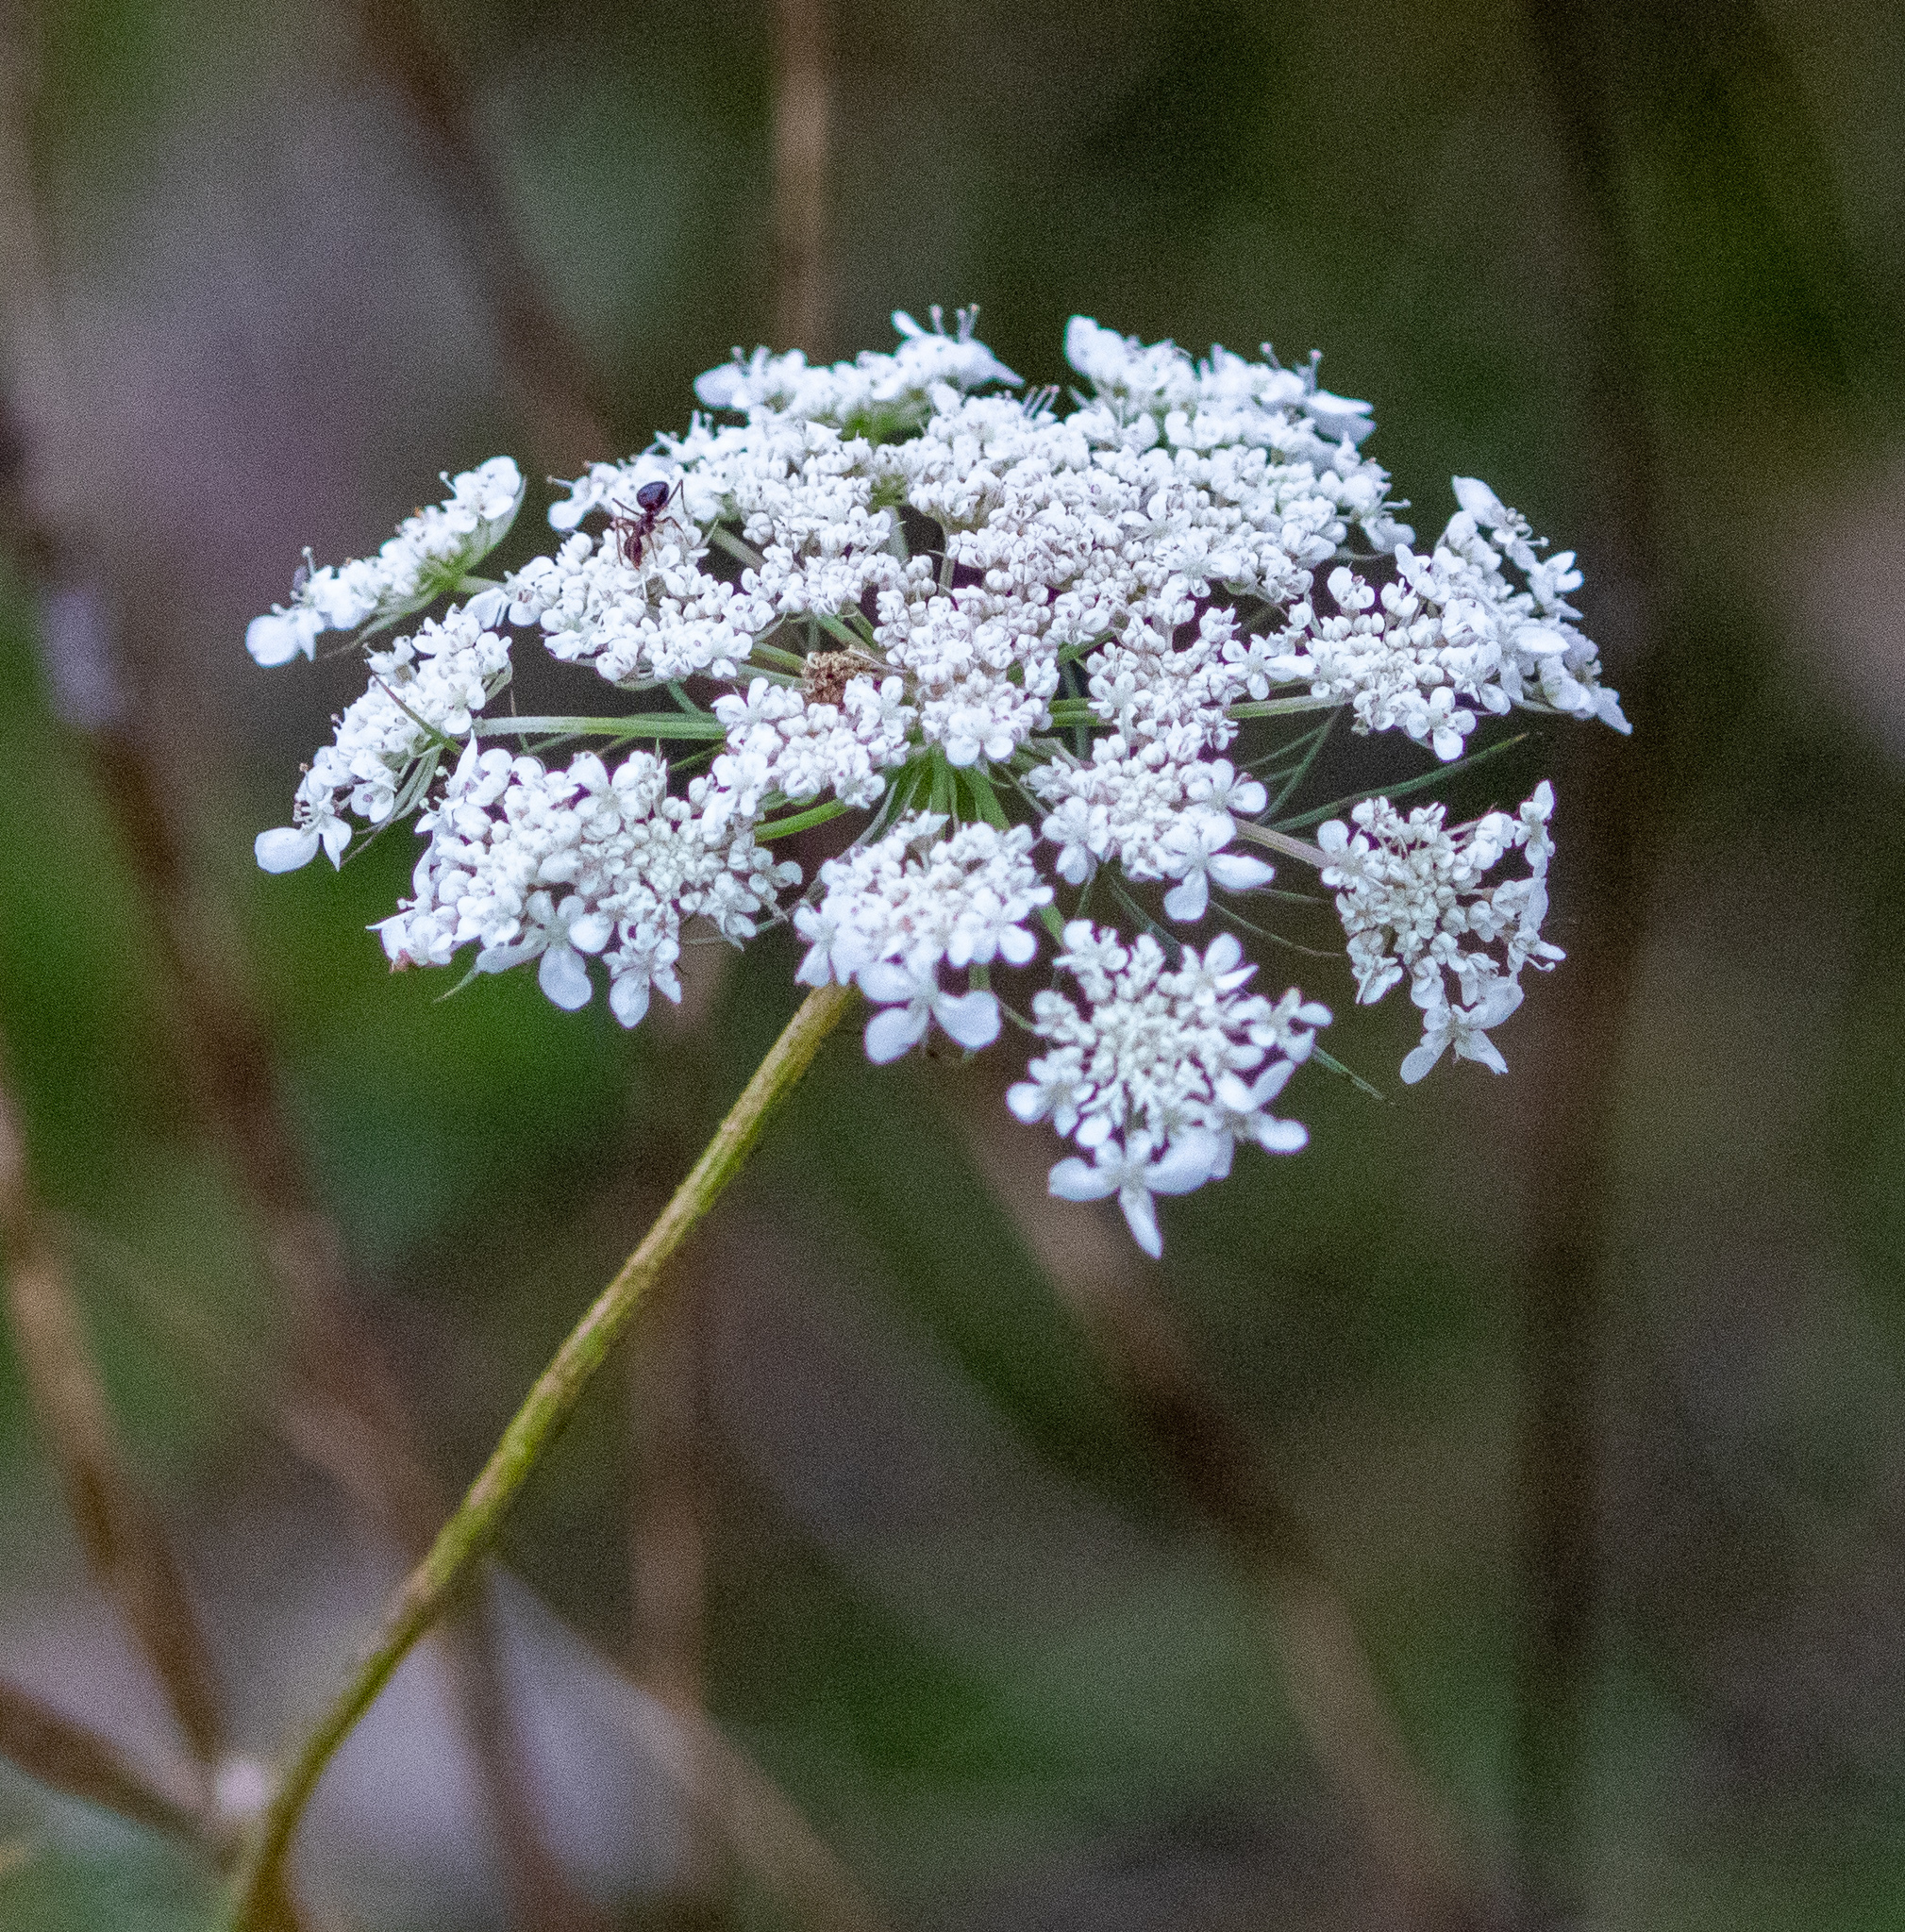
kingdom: Plantae
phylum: Tracheophyta
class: Magnoliopsida
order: Apiales
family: Apiaceae
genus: Daucus
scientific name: Daucus carota
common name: Wild carrot
